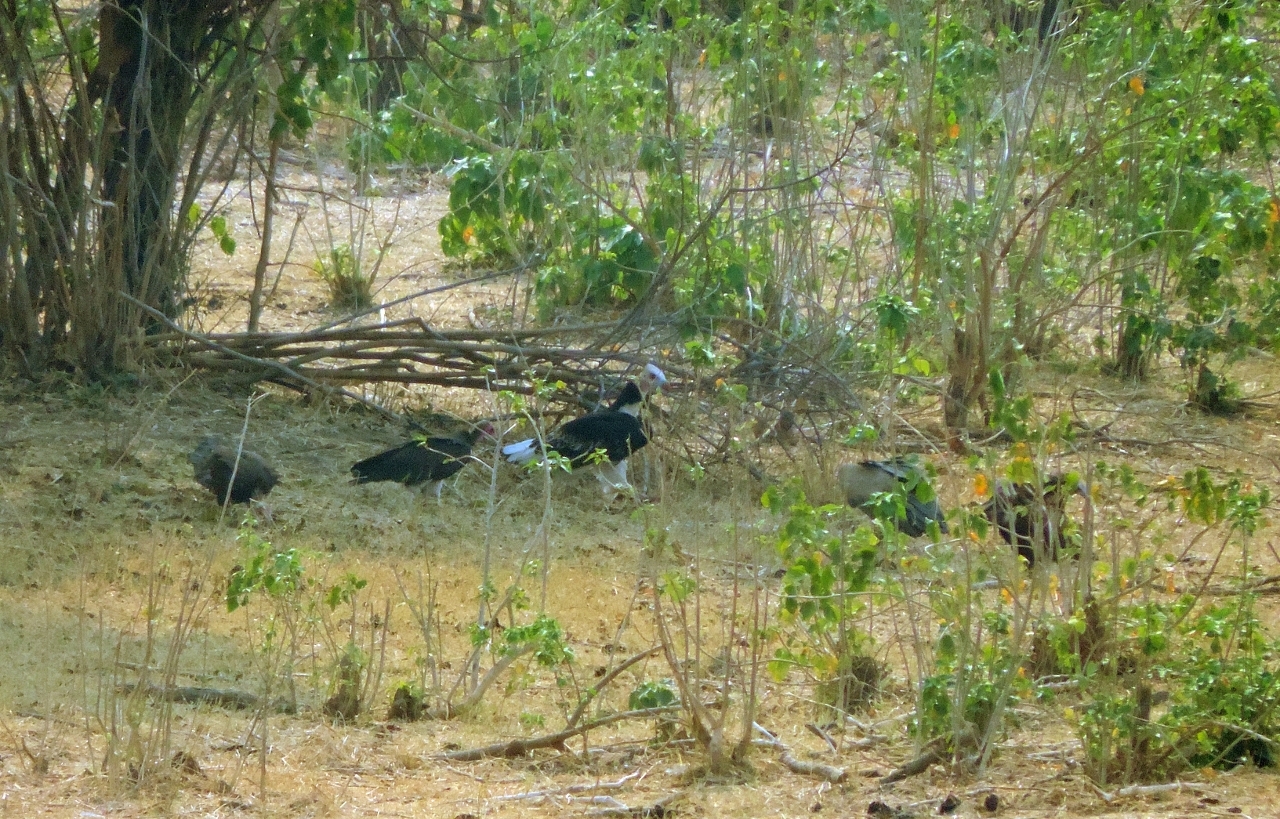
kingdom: Animalia
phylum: Chordata
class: Aves
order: Accipitriformes
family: Accipitridae
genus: Trigonoceps
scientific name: Trigonoceps occipitalis
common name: White-headed vulture
